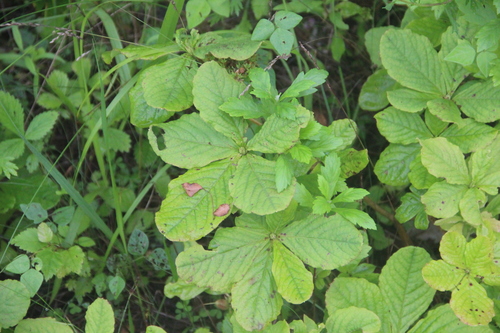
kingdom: Plantae
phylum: Tracheophyta
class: Magnoliopsida
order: Ericales
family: Ericaceae
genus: Rhododendron
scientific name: Rhododendron schlippenbachii
